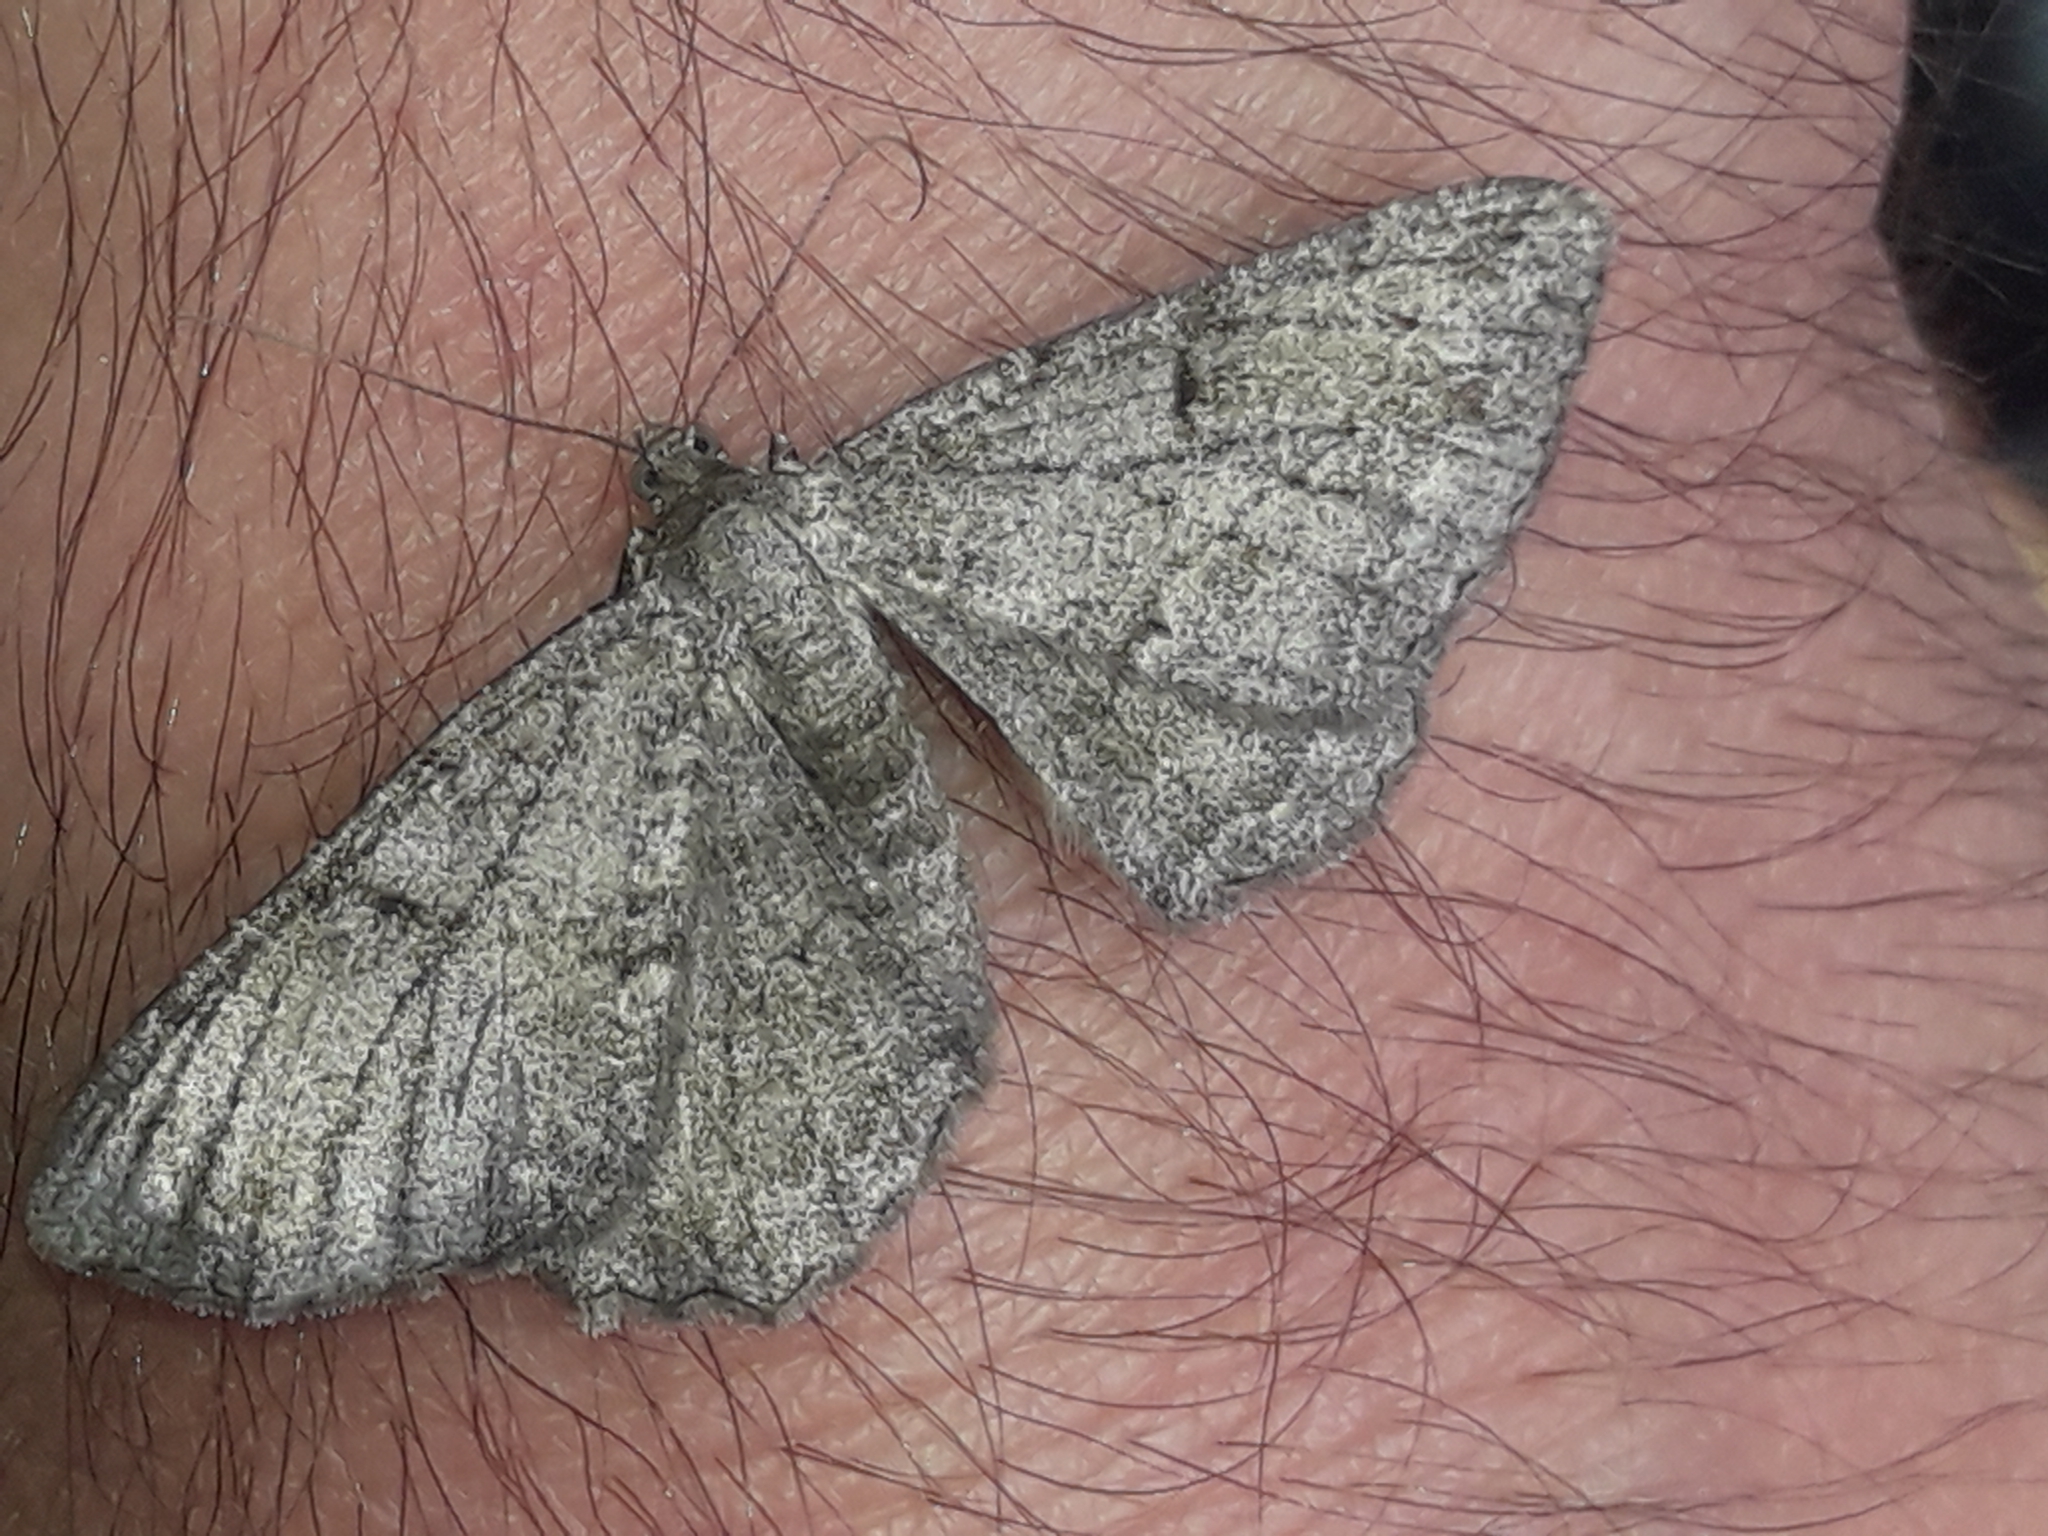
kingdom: Animalia
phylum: Arthropoda
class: Insecta
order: Lepidoptera
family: Geometridae
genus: Peribatodes
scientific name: Peribatodes rhomboidaria
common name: Willow beauty
